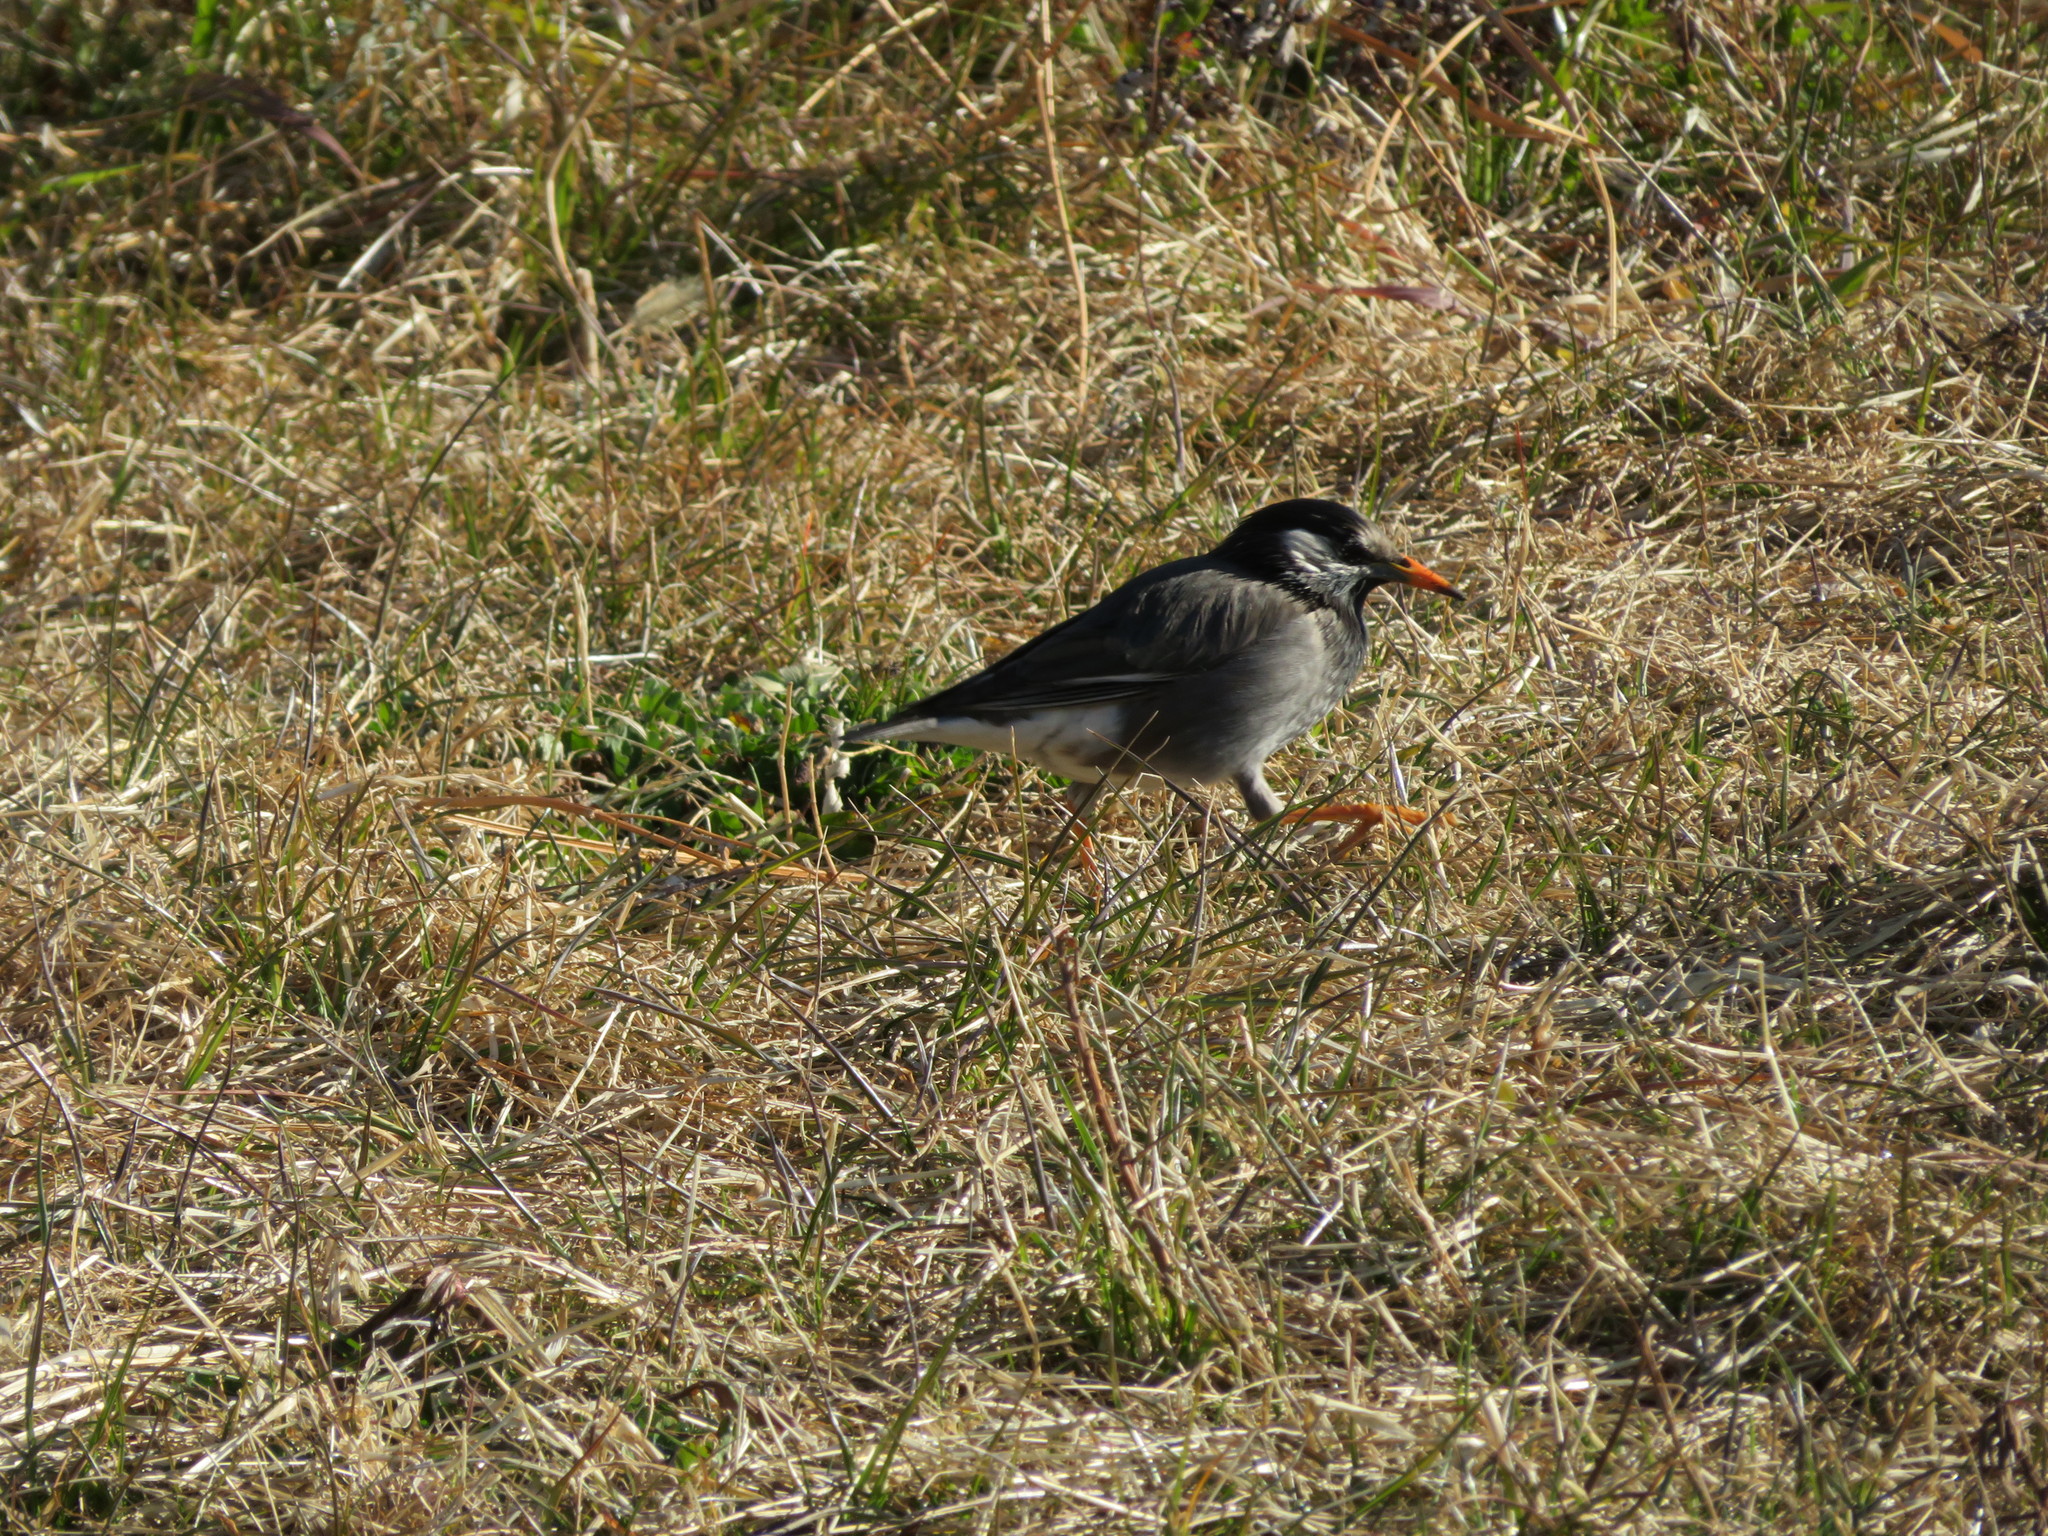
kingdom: Animalia
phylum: Chordata
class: Aves
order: Passeriformes
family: Sturnidae
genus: Spodiopsar
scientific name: Spodiopsar cineraceus
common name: White-cheeked starling
